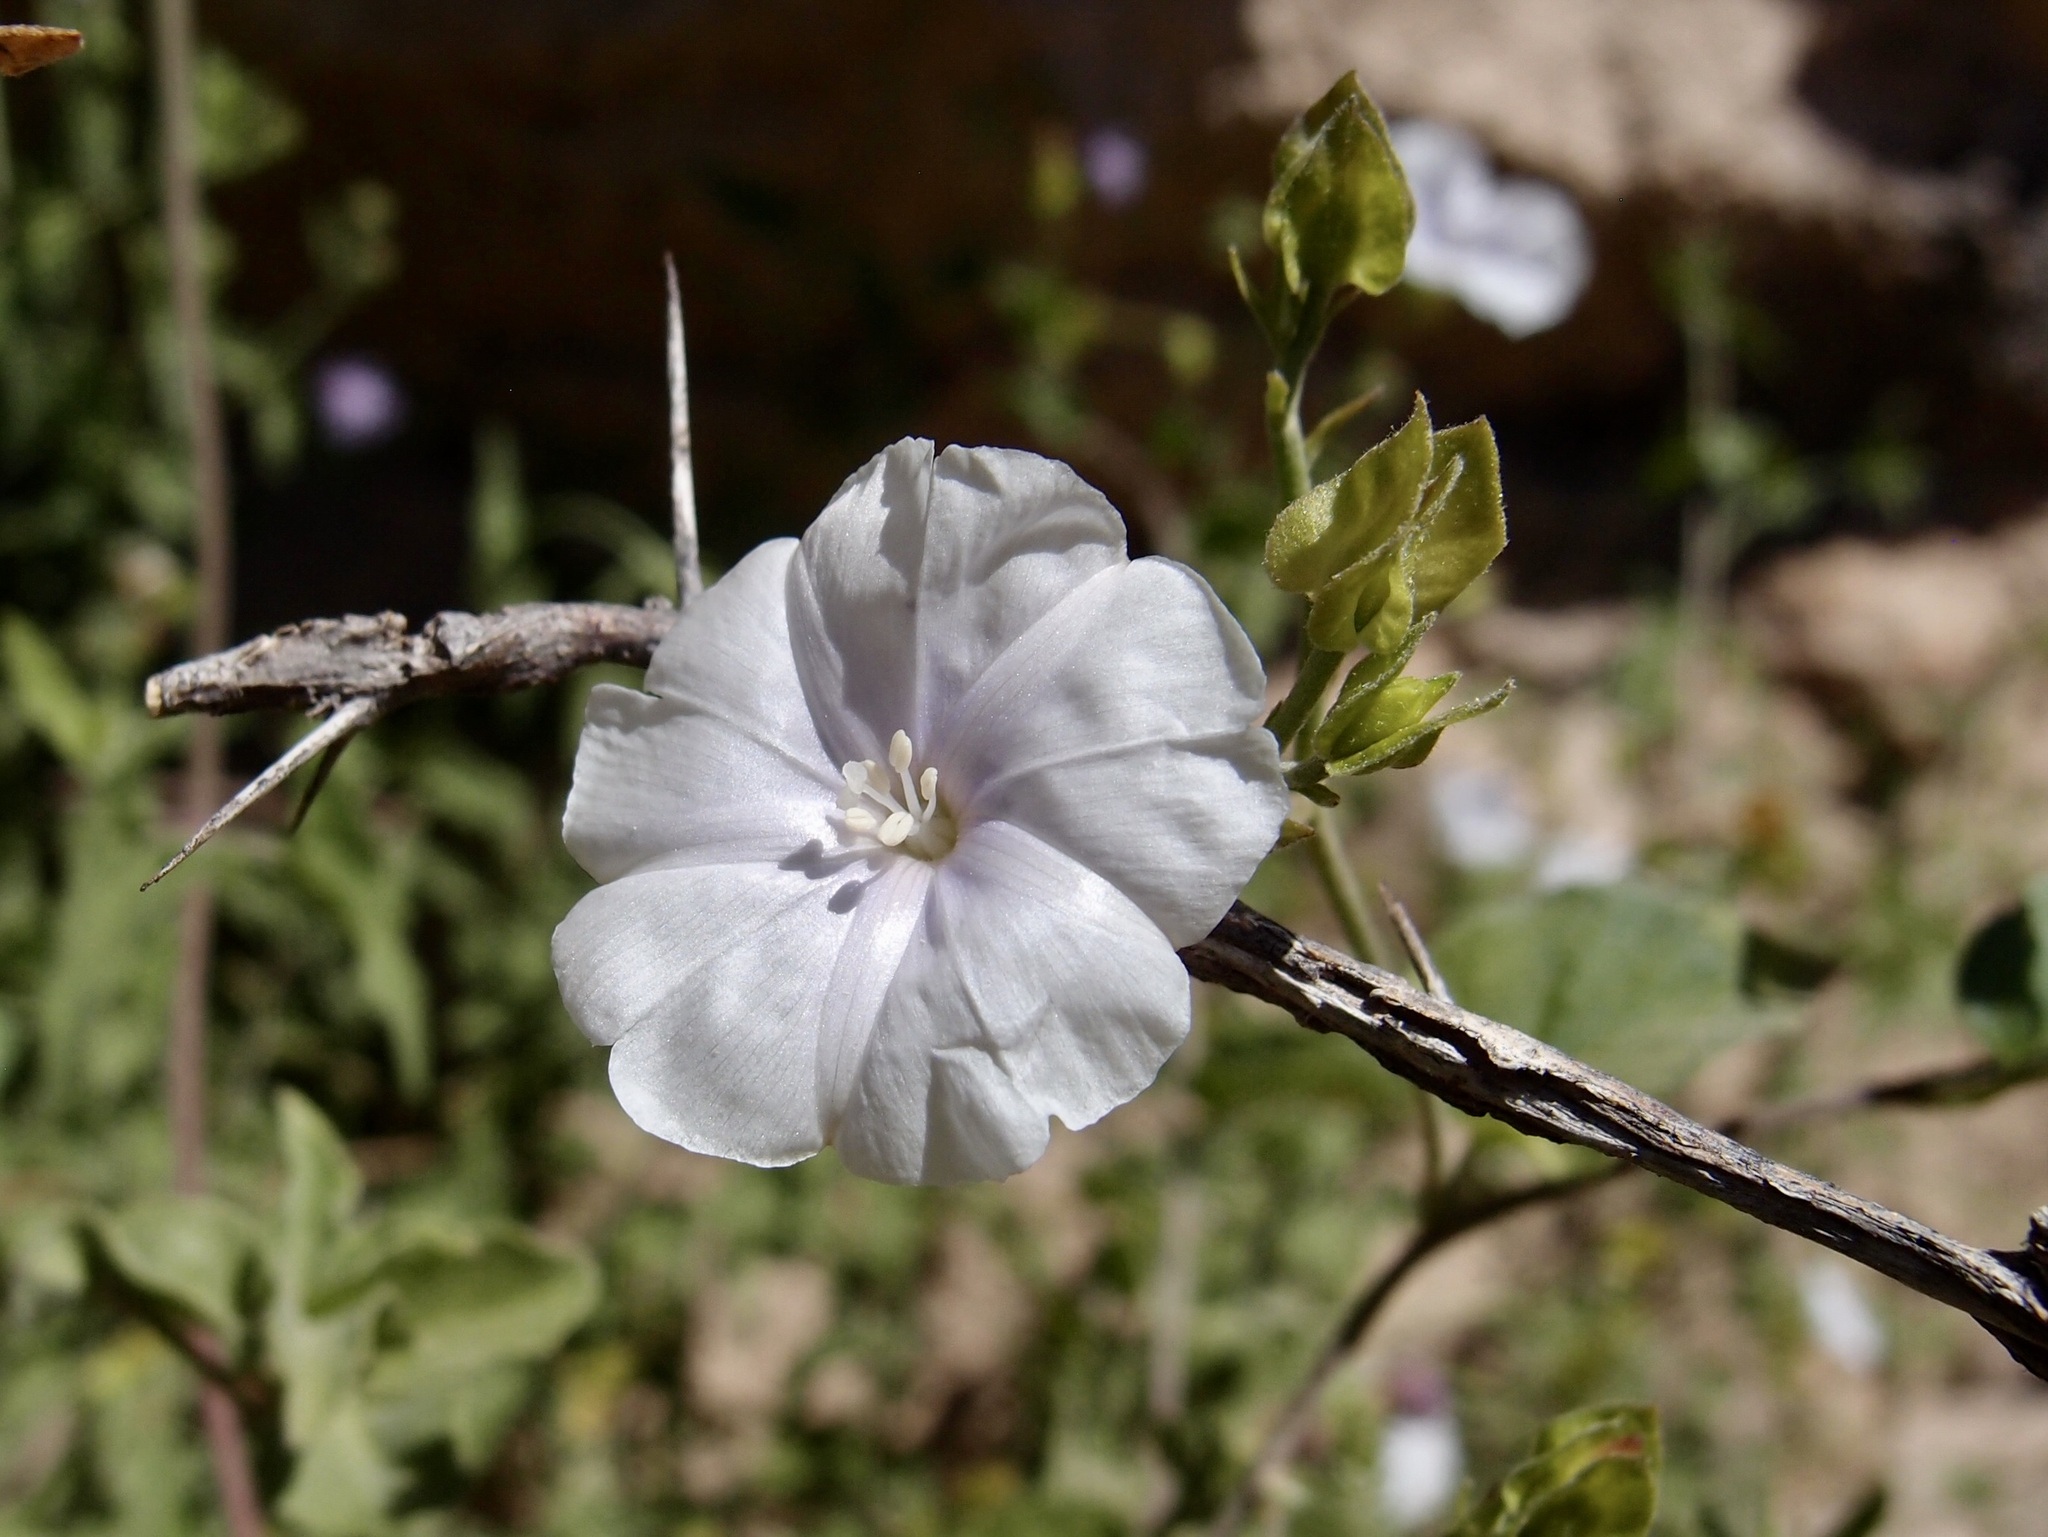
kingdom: Plantae
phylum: Tracheophyta
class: Magnoliopsida
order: Solanales
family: Convolvulaceae
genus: Jacquemontia
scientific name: Jacquemontia pringlei
